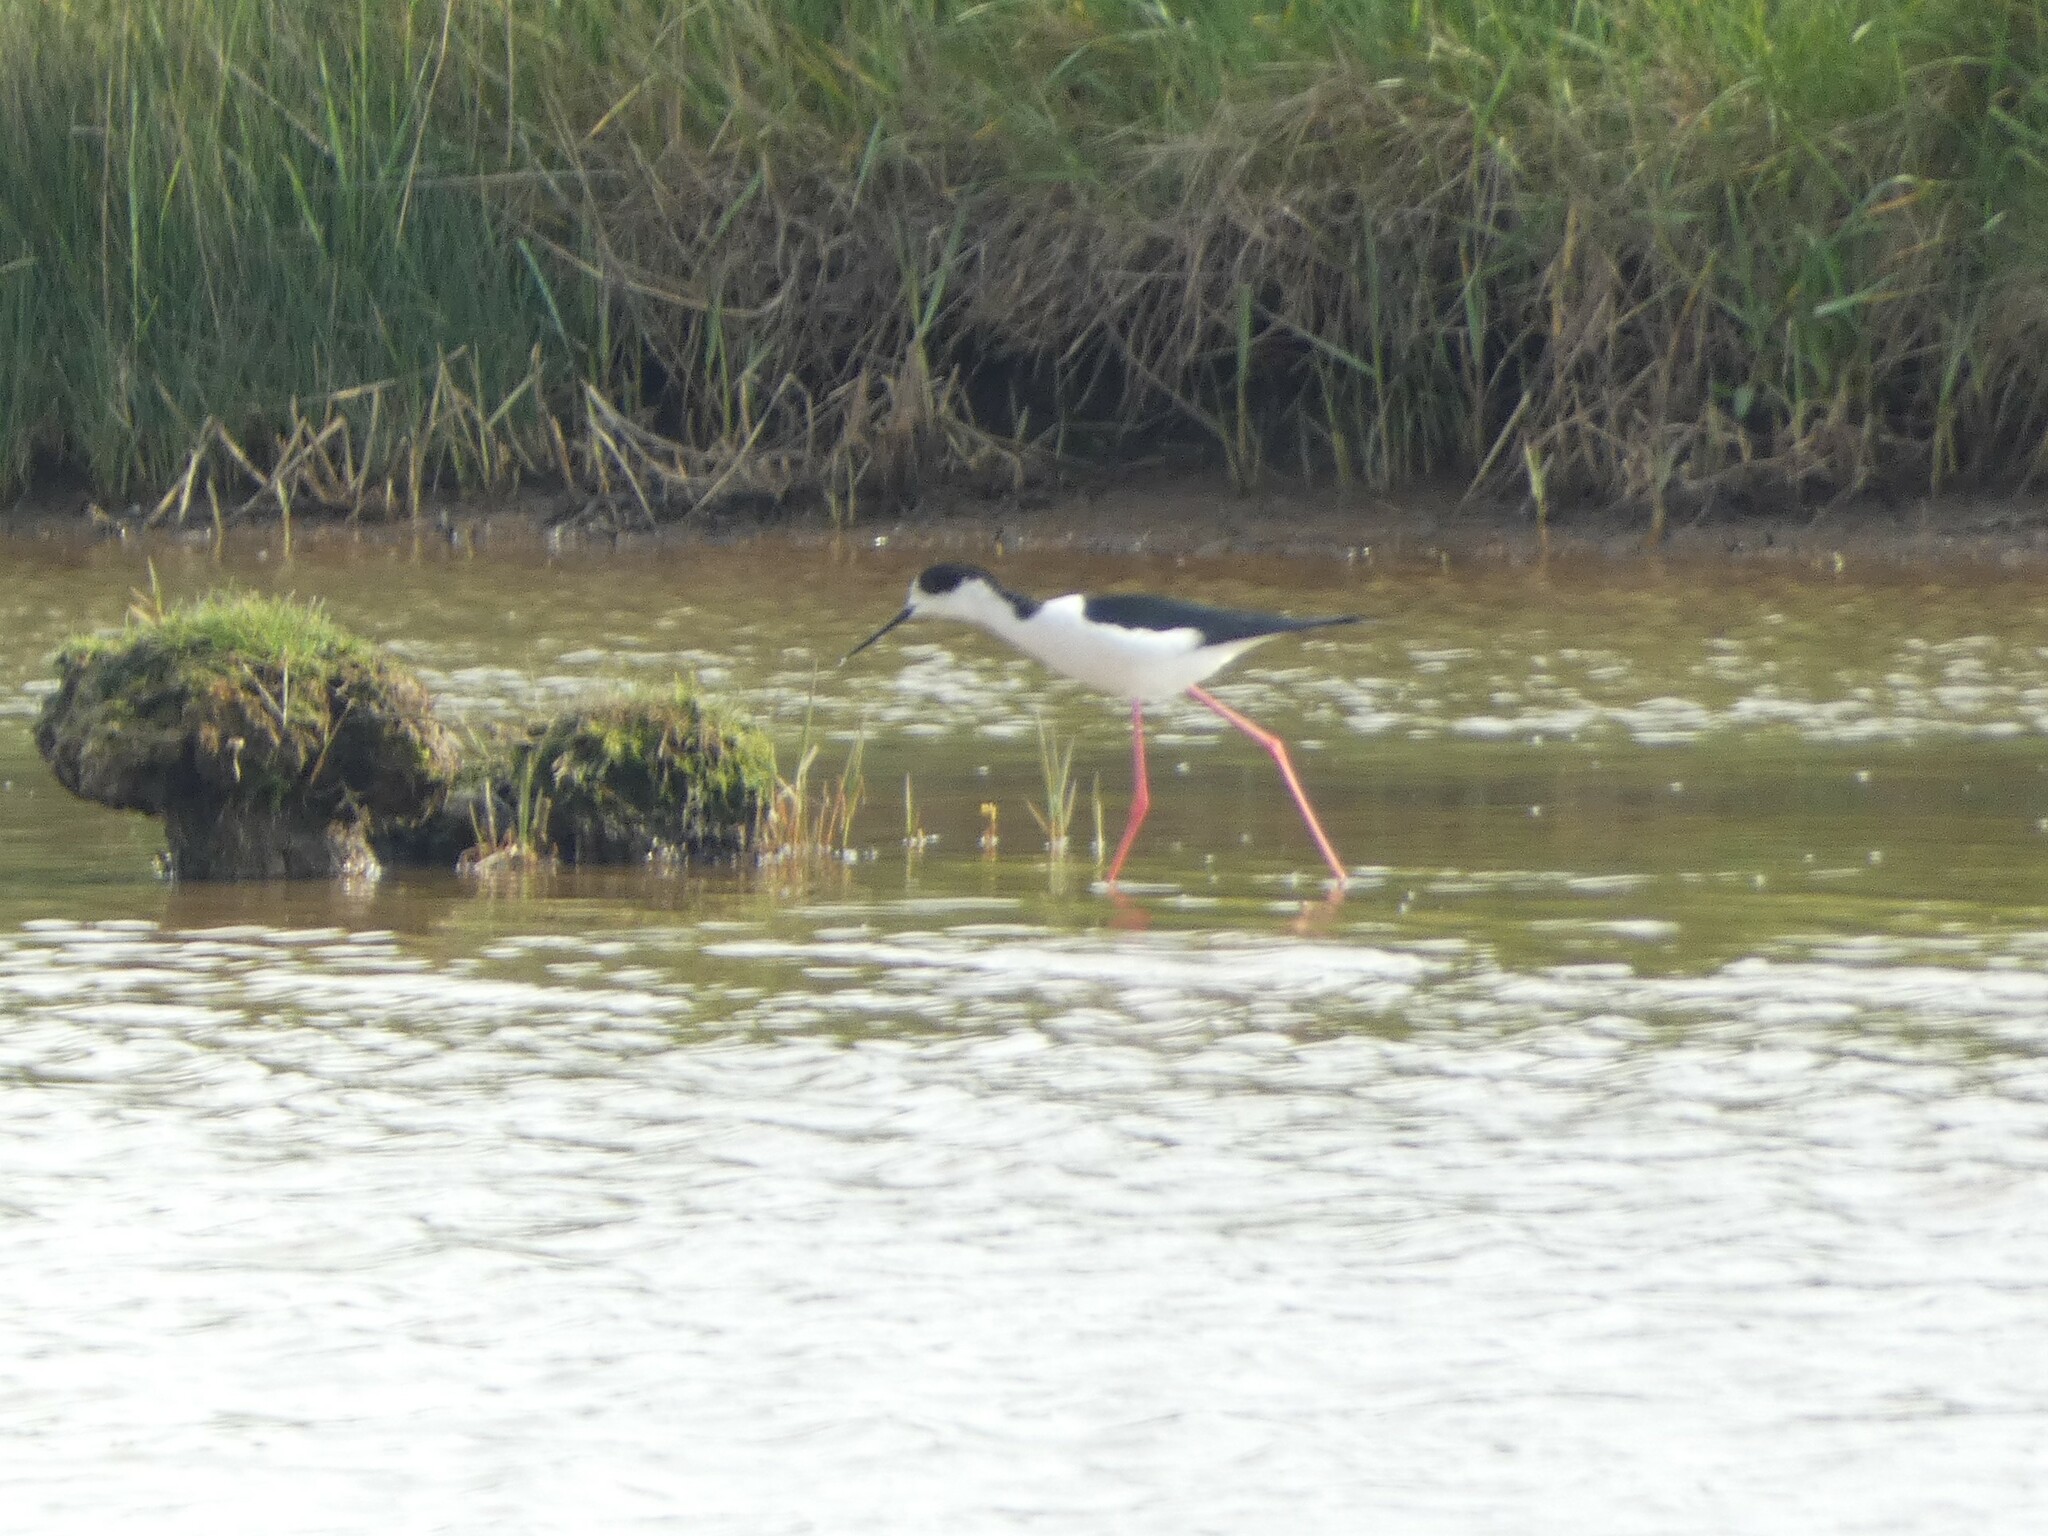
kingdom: Animalia
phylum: Chordata
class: Aves
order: Charadriiformes
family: Recurvirostridae
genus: Himantopus
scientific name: Himantopus himantopus
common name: Black-winged stilt
